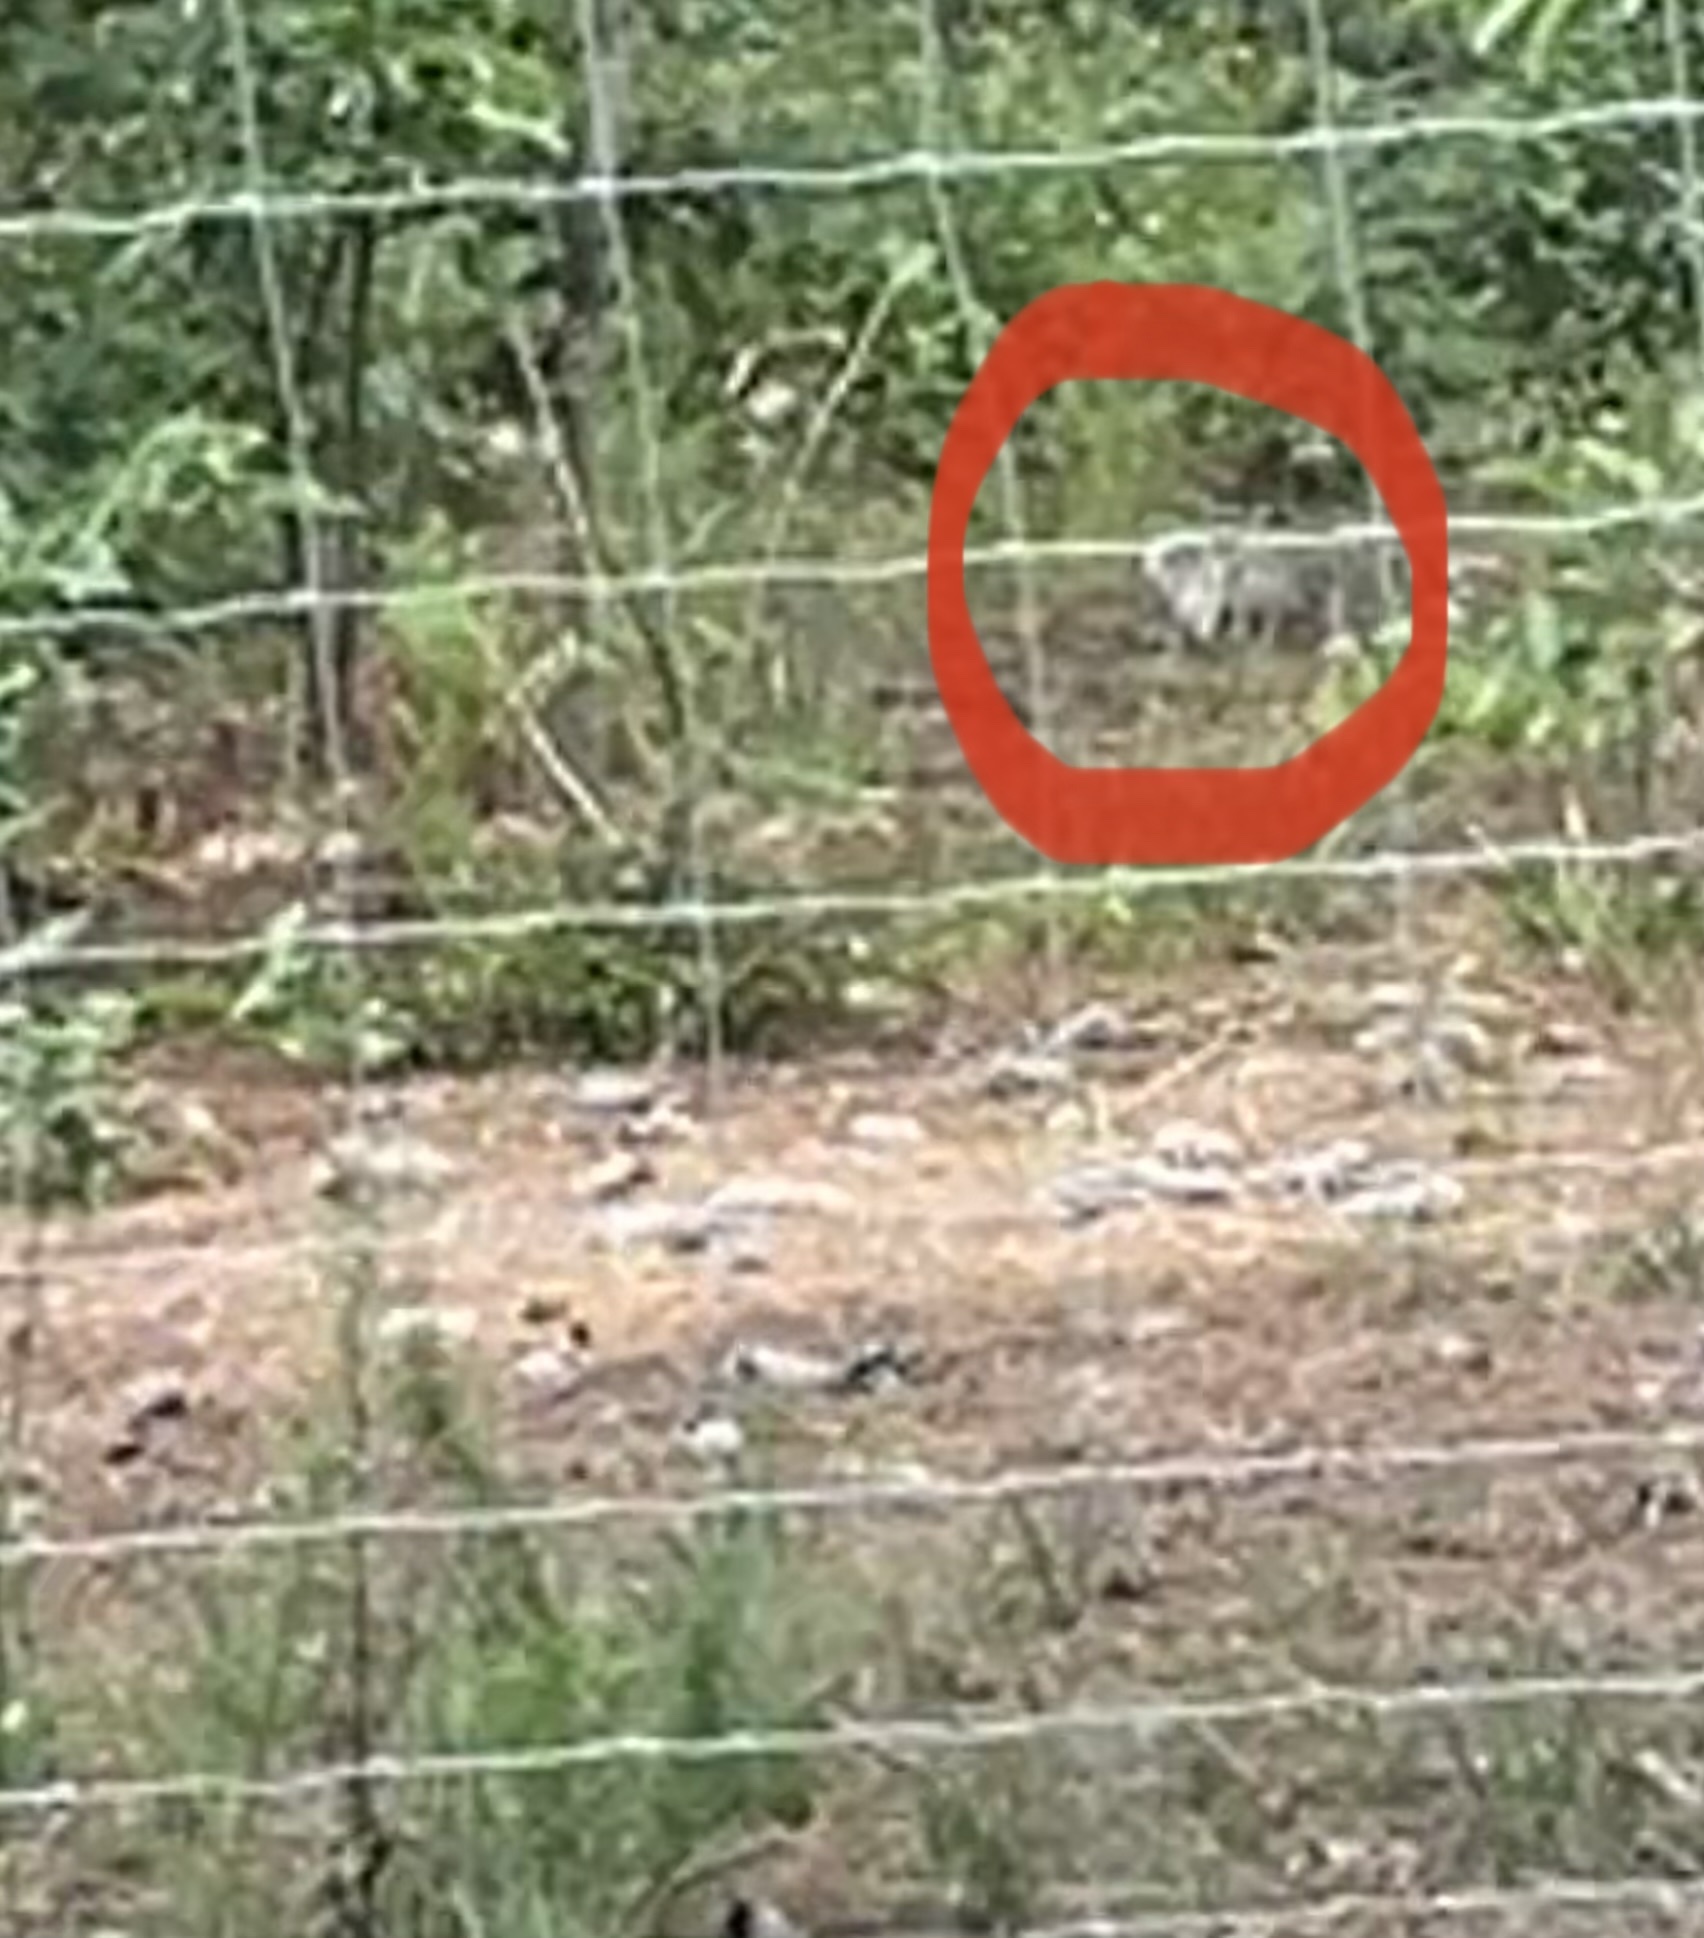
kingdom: Animalia
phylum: Chordata
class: Mammalia
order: Rodentia
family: Sciuridae
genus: Sciurus
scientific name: Sciurus niger
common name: Fox squirrel
